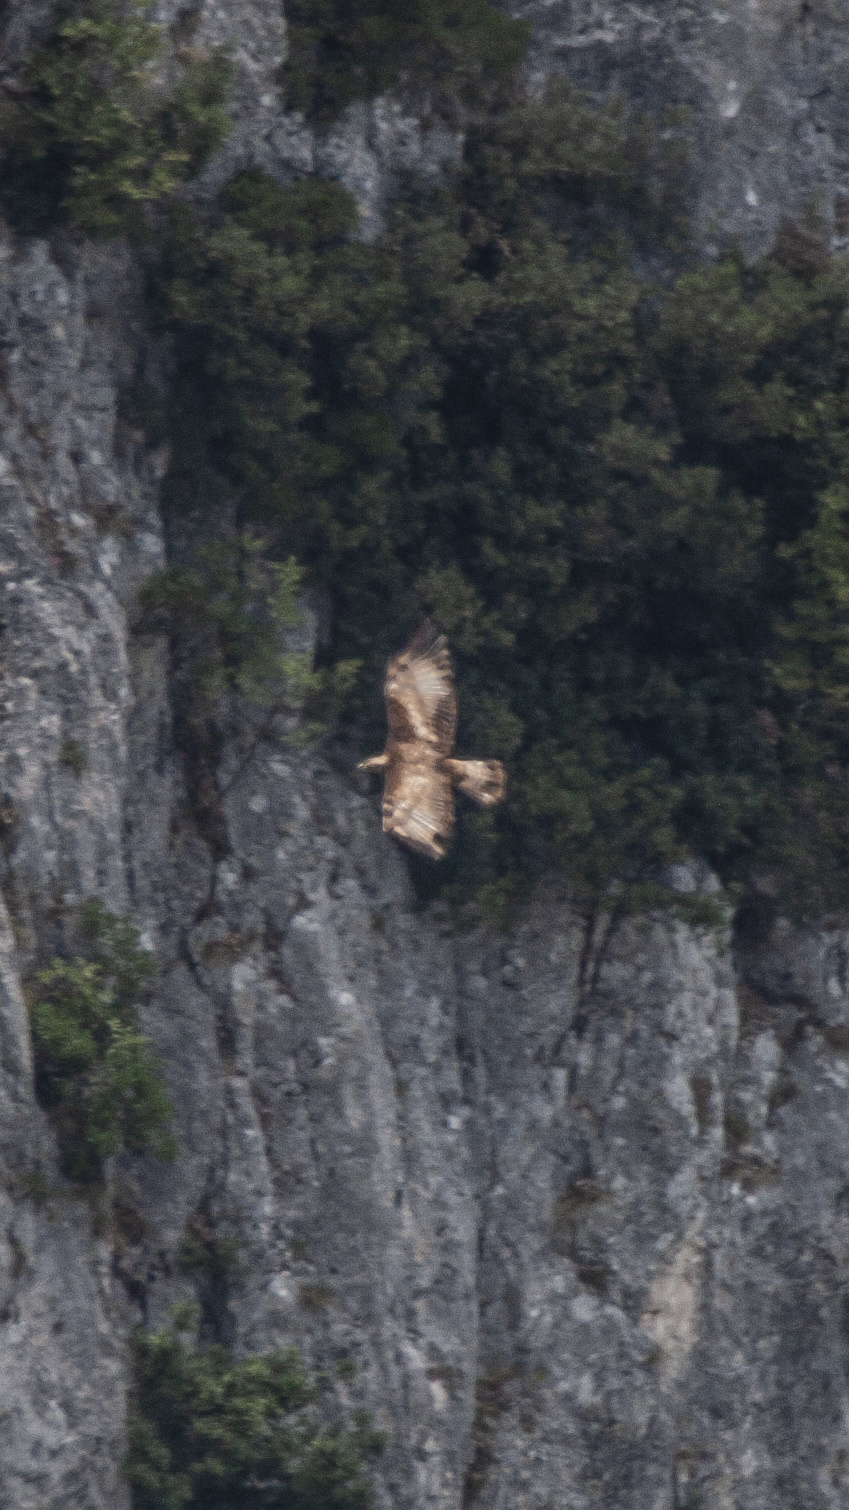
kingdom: Animalia
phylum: Chordata
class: Aves
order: Accipitriformes
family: Accipitridae
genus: Aquila
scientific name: Aquila chrysaetos
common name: Golden eagle
